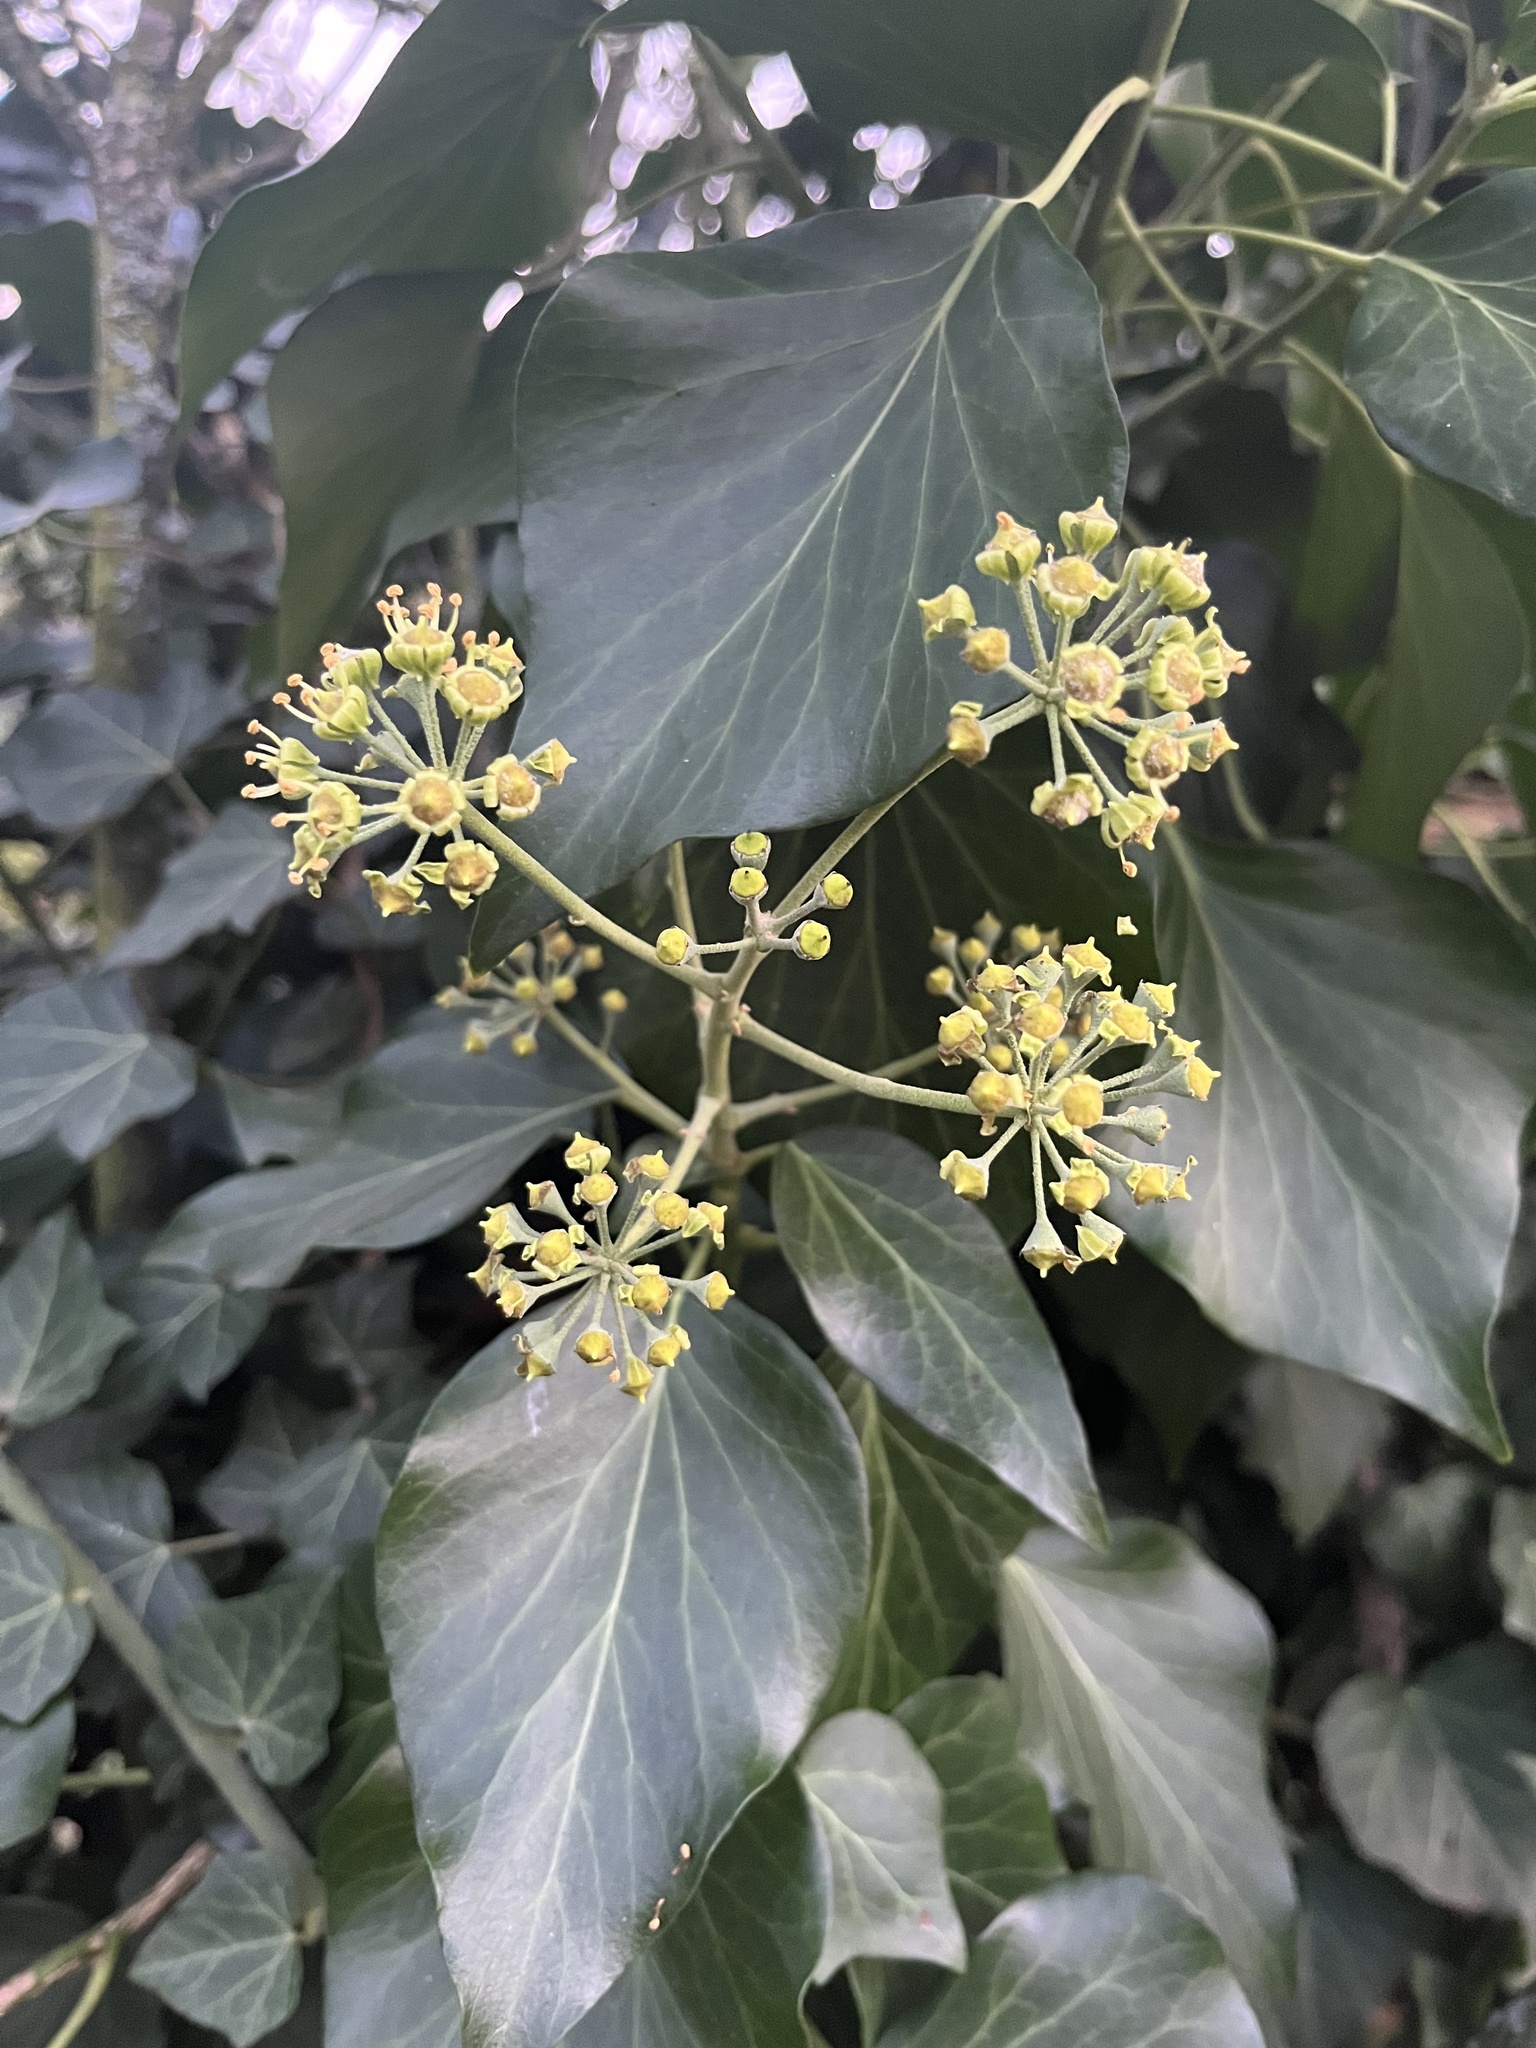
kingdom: Plantae
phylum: Tracheophyta
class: Magnoliopsida
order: Apiales
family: Araliaceae
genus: Hedera
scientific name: Hedera helix
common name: Ivy
